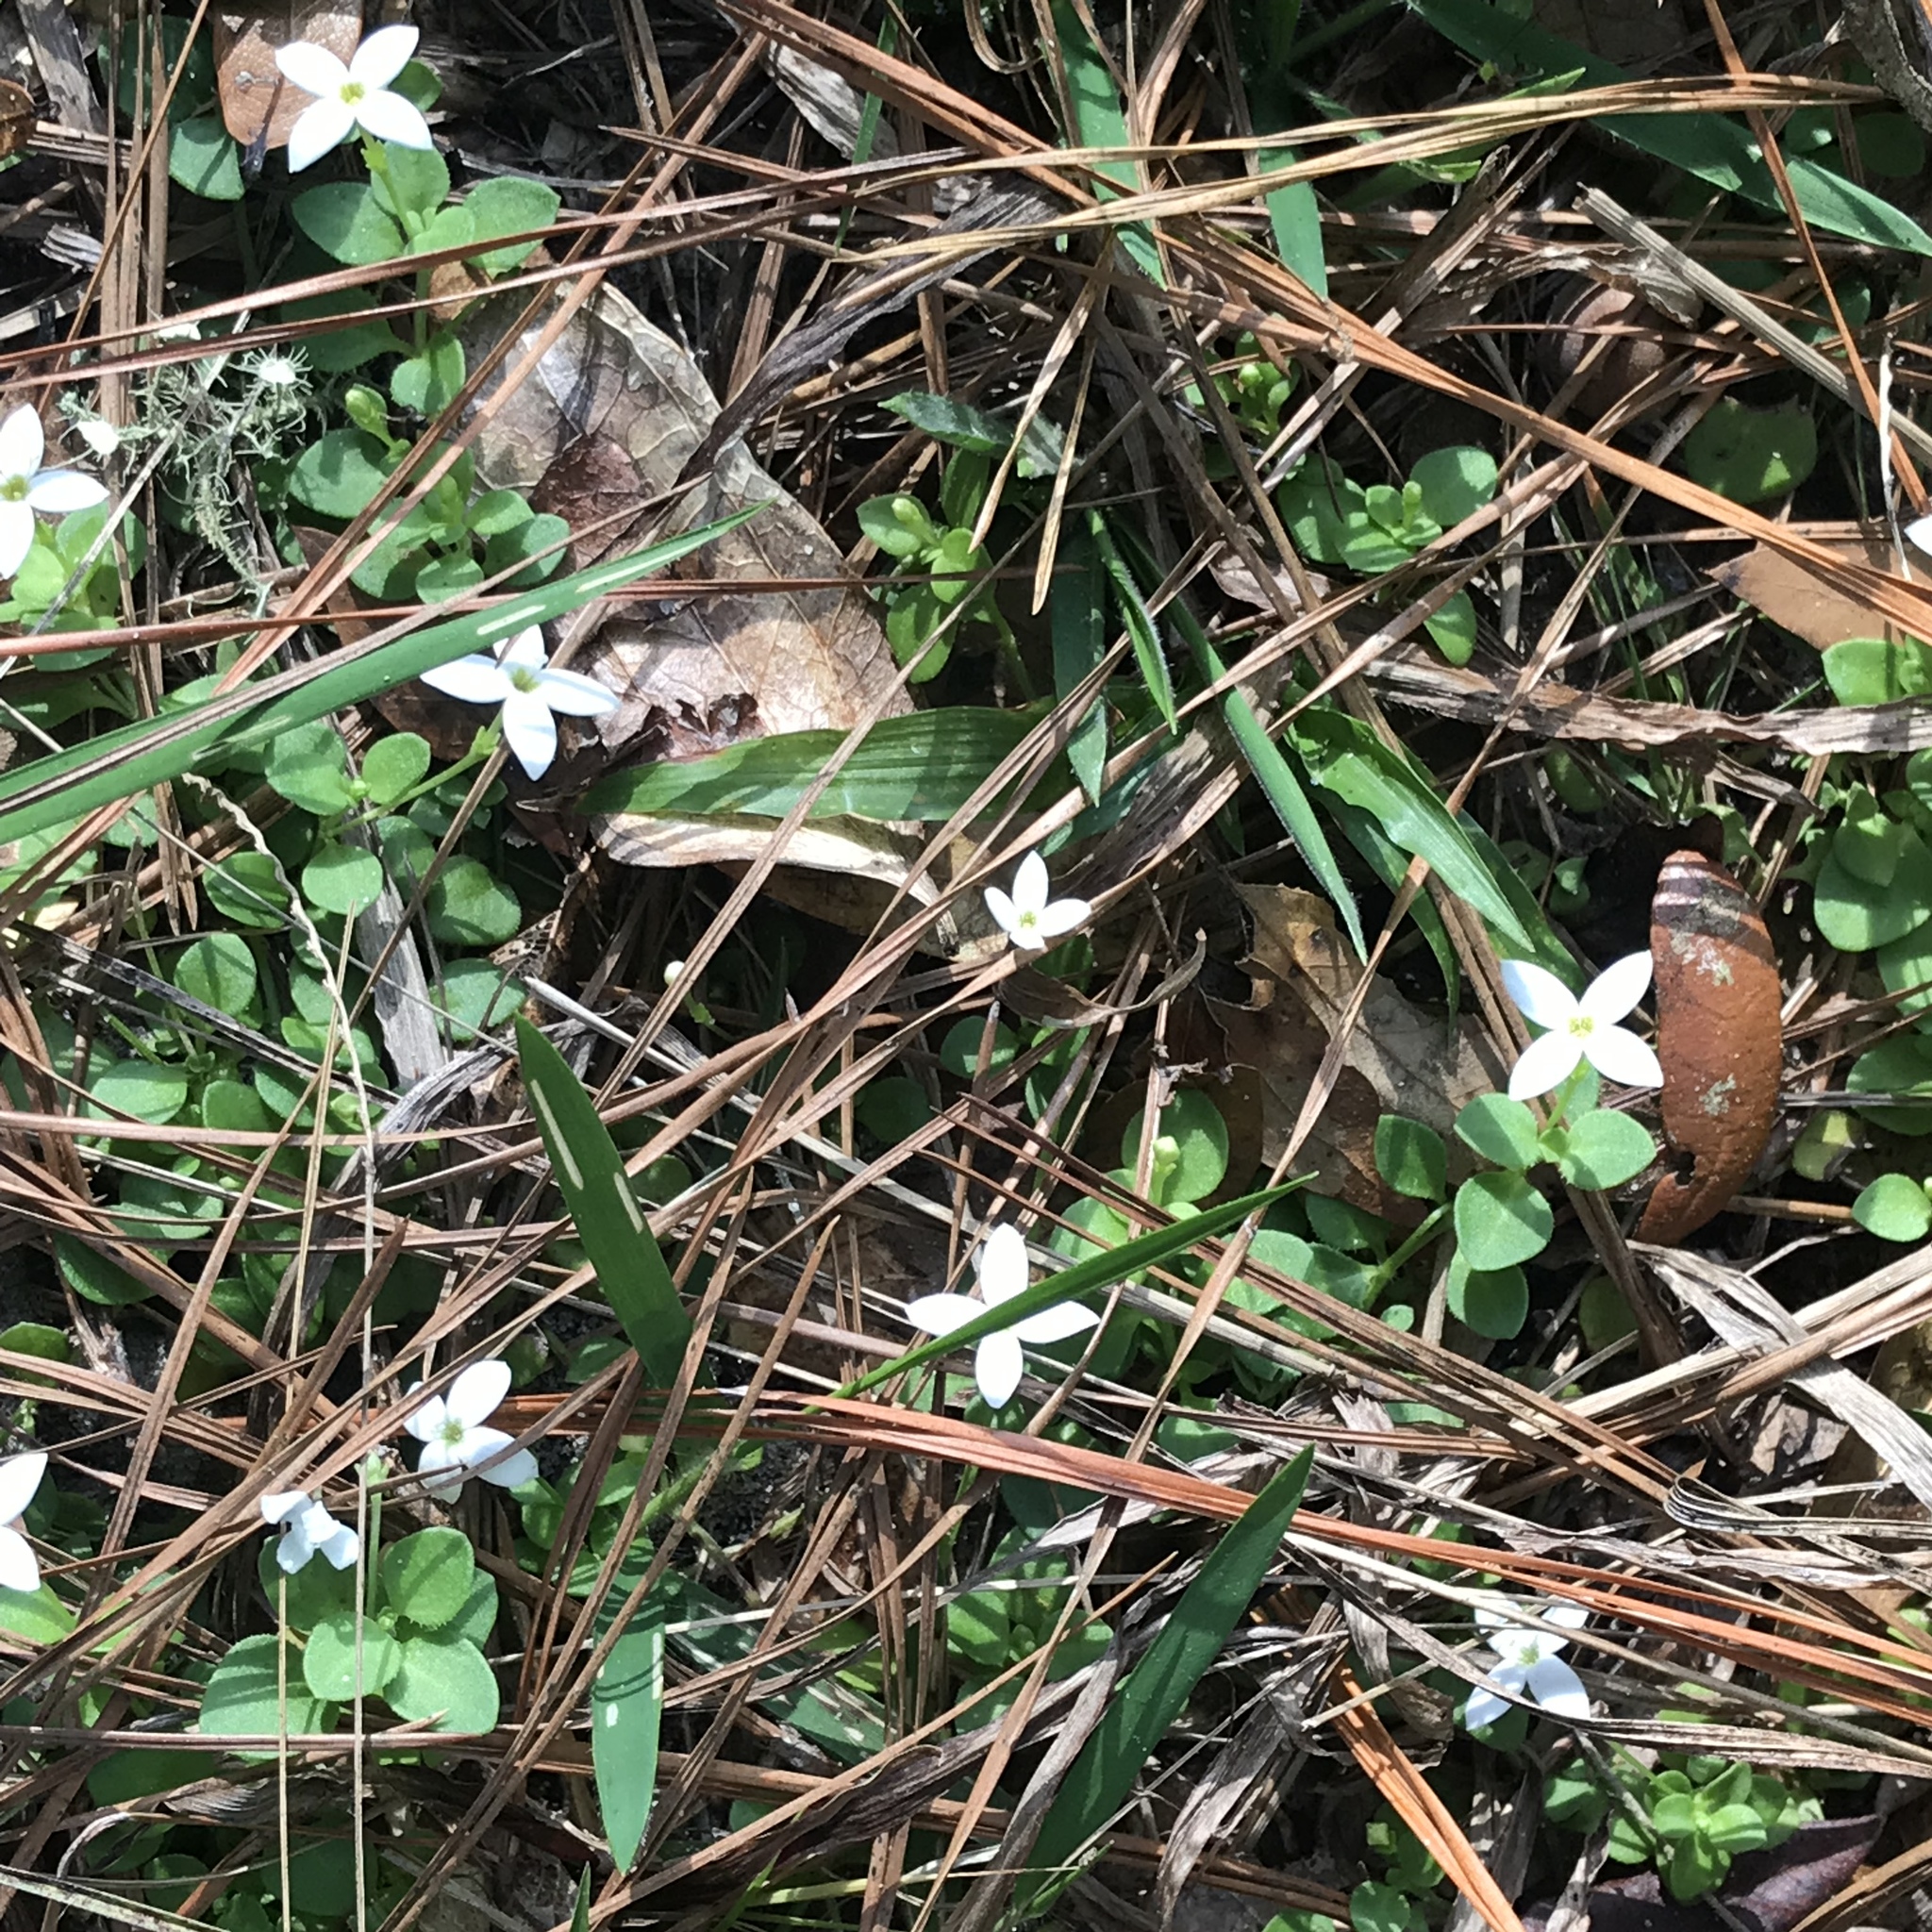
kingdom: Plantae
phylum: Tracheophyta
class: Magnoliopsida
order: Gentianales
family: Rubiaceae
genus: Houstonia
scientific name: Houstonia procumbens
